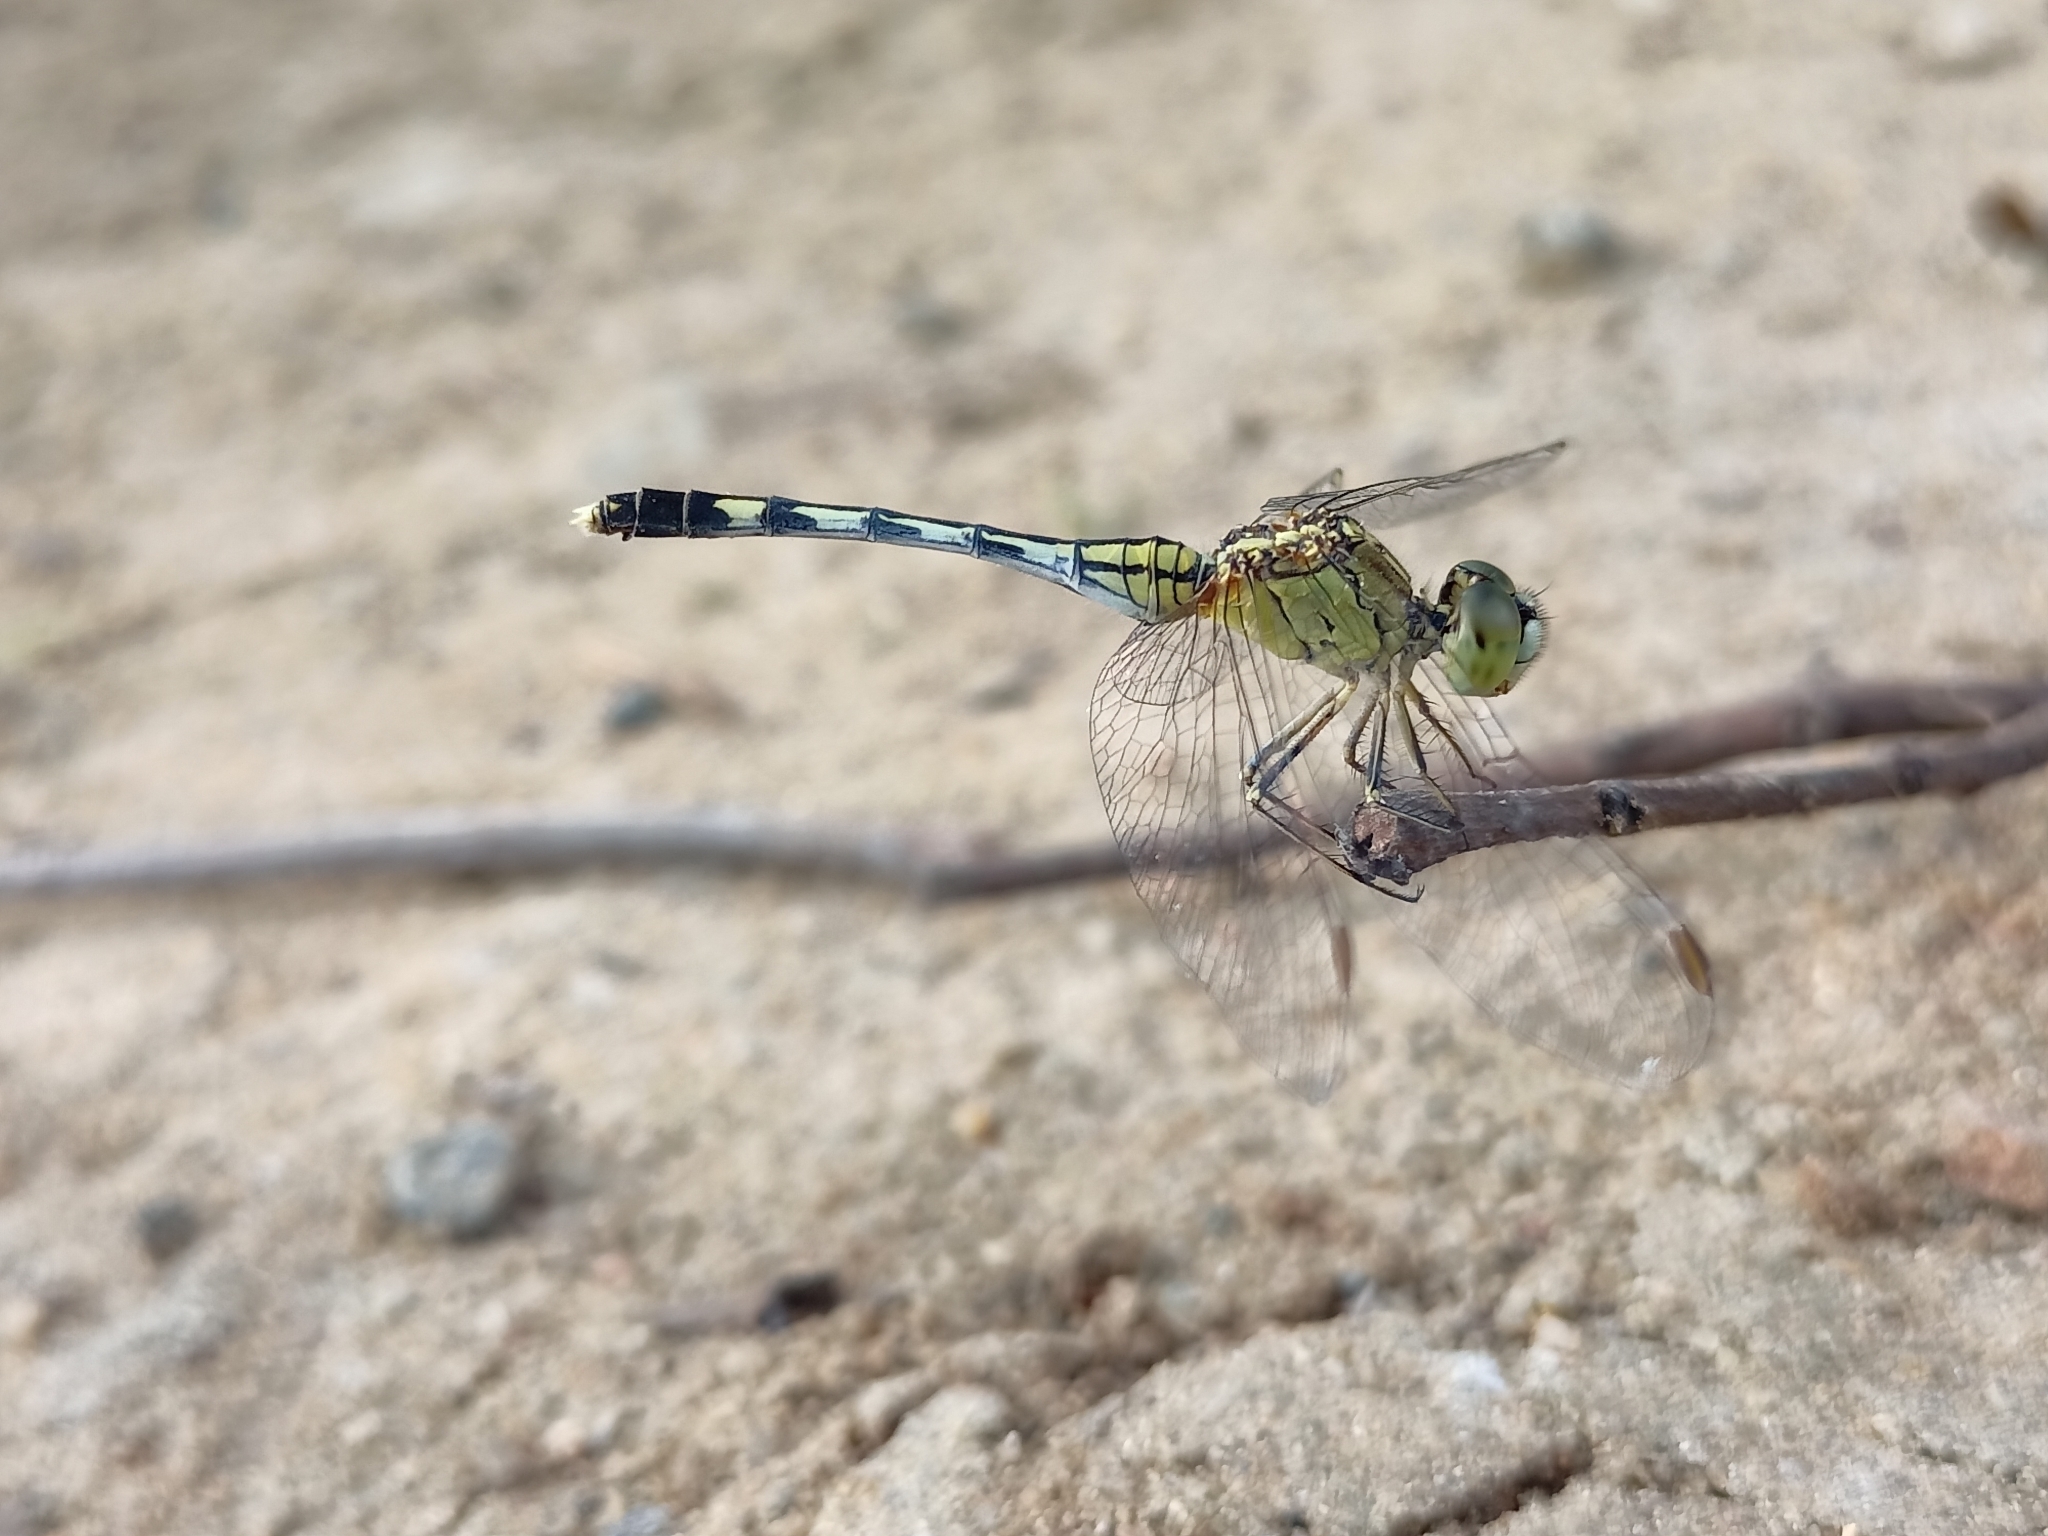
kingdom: Animalia
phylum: Arthropoda
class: Insecta
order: Odonata
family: Libellulidae
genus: Diplacodes
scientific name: Diplacodes trivialis
